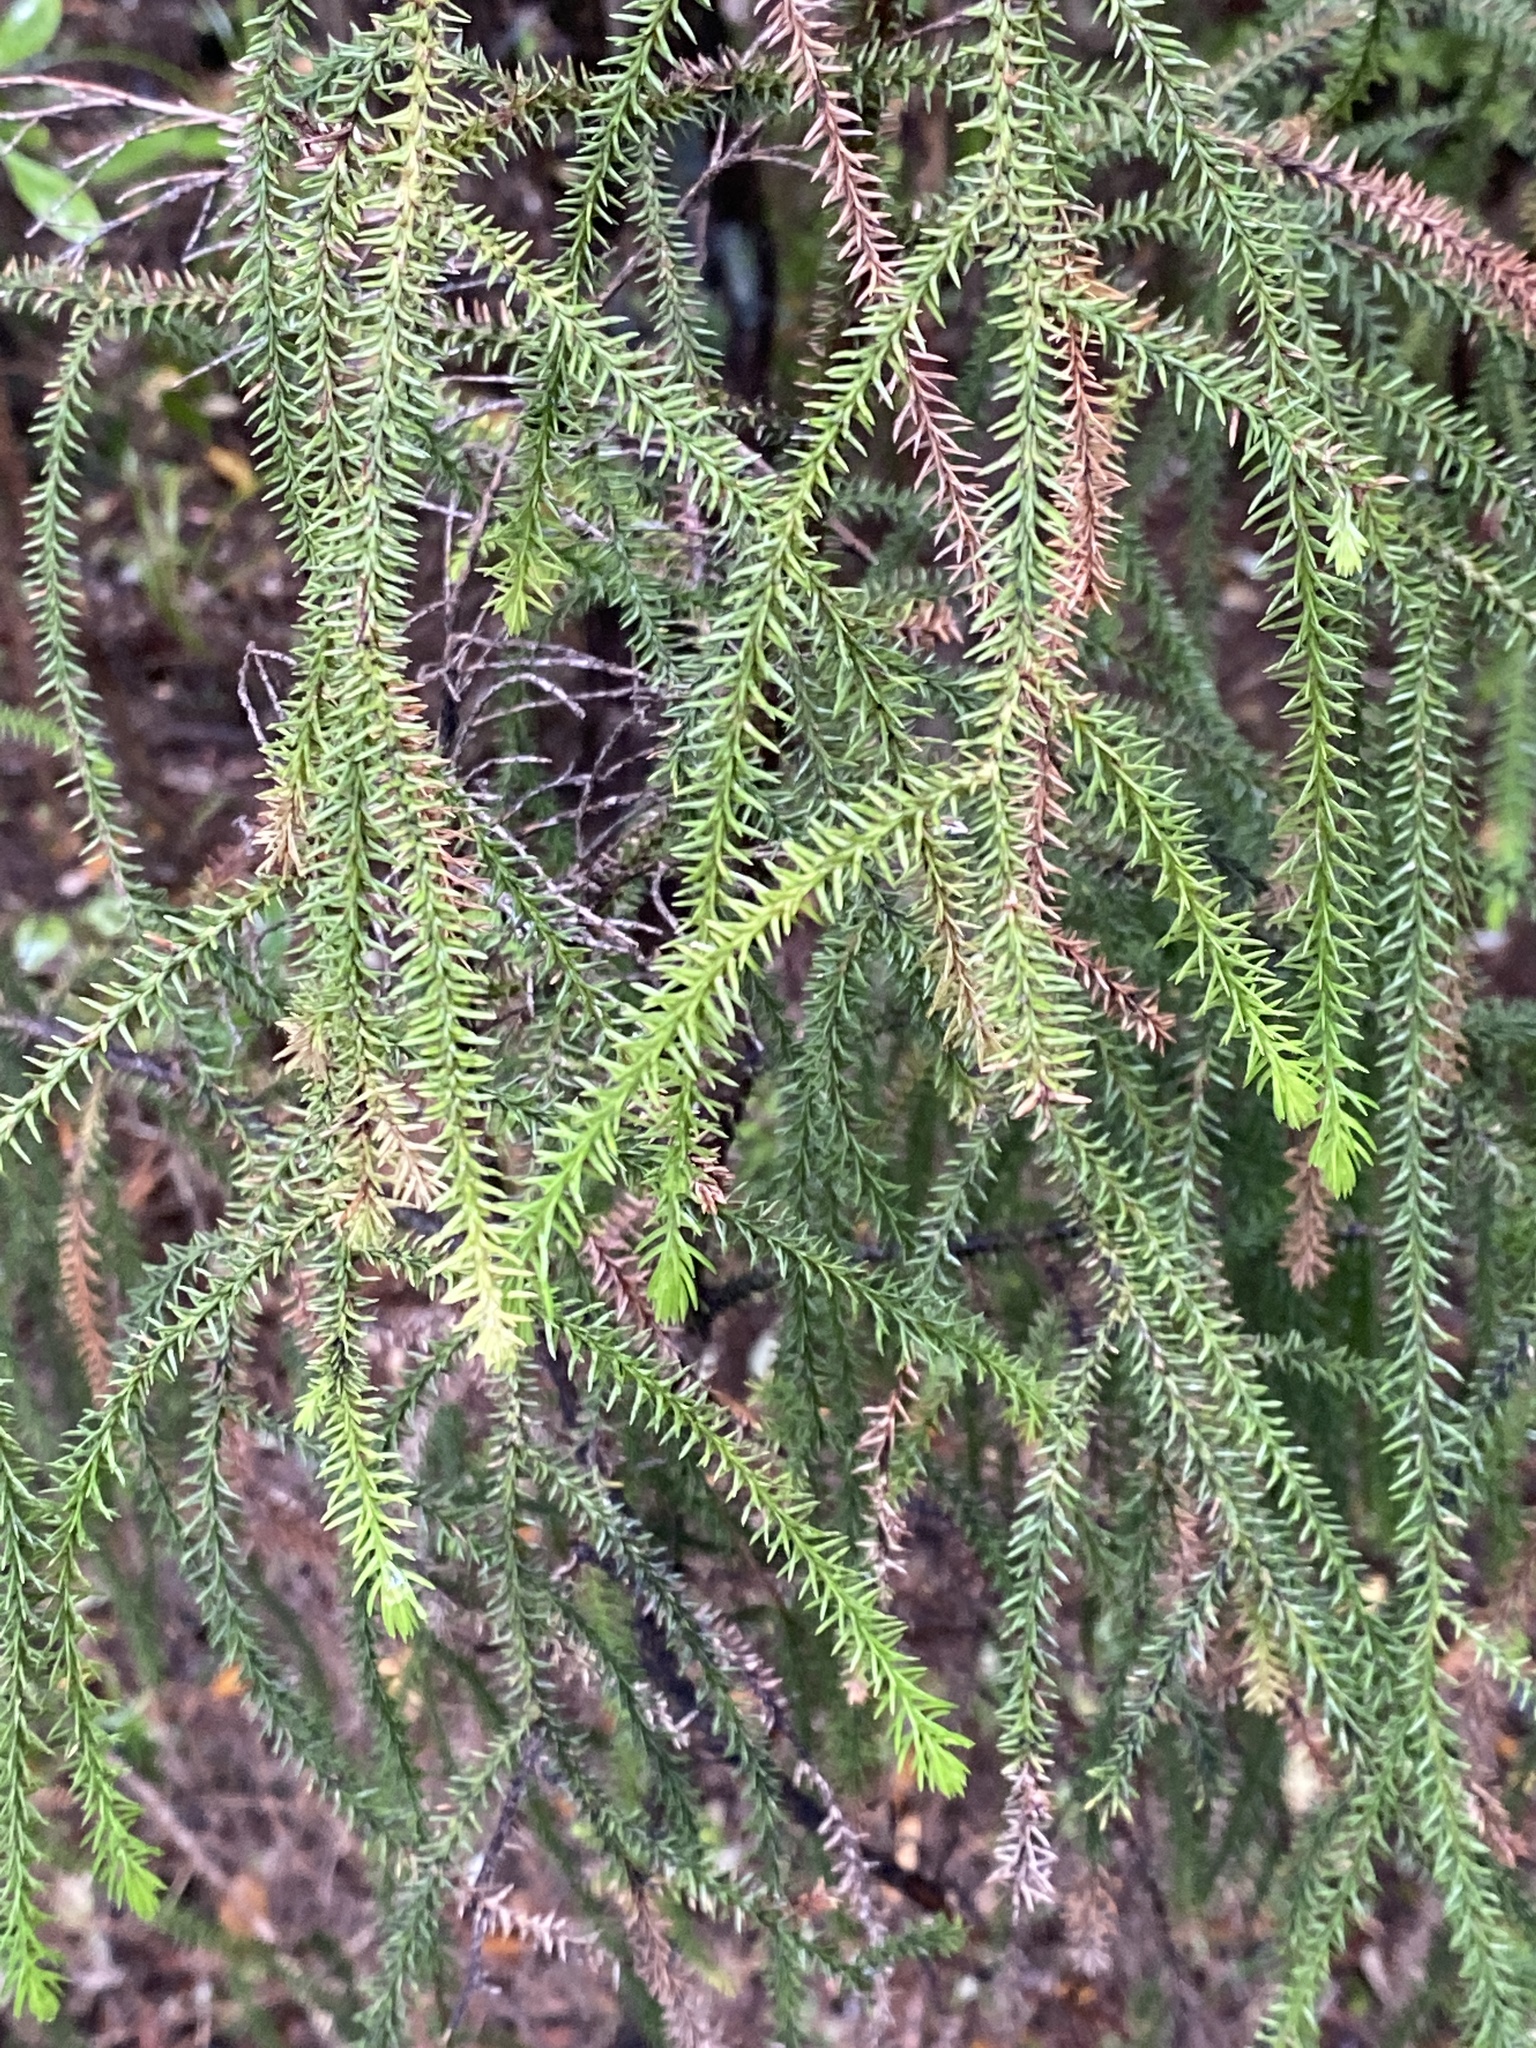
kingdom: Plantae
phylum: Tracheophyta
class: Pinopsida
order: Pinales
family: Podocarpaceae
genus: Dacrydium
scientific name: Dacrydium cupressinum
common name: Red pine
